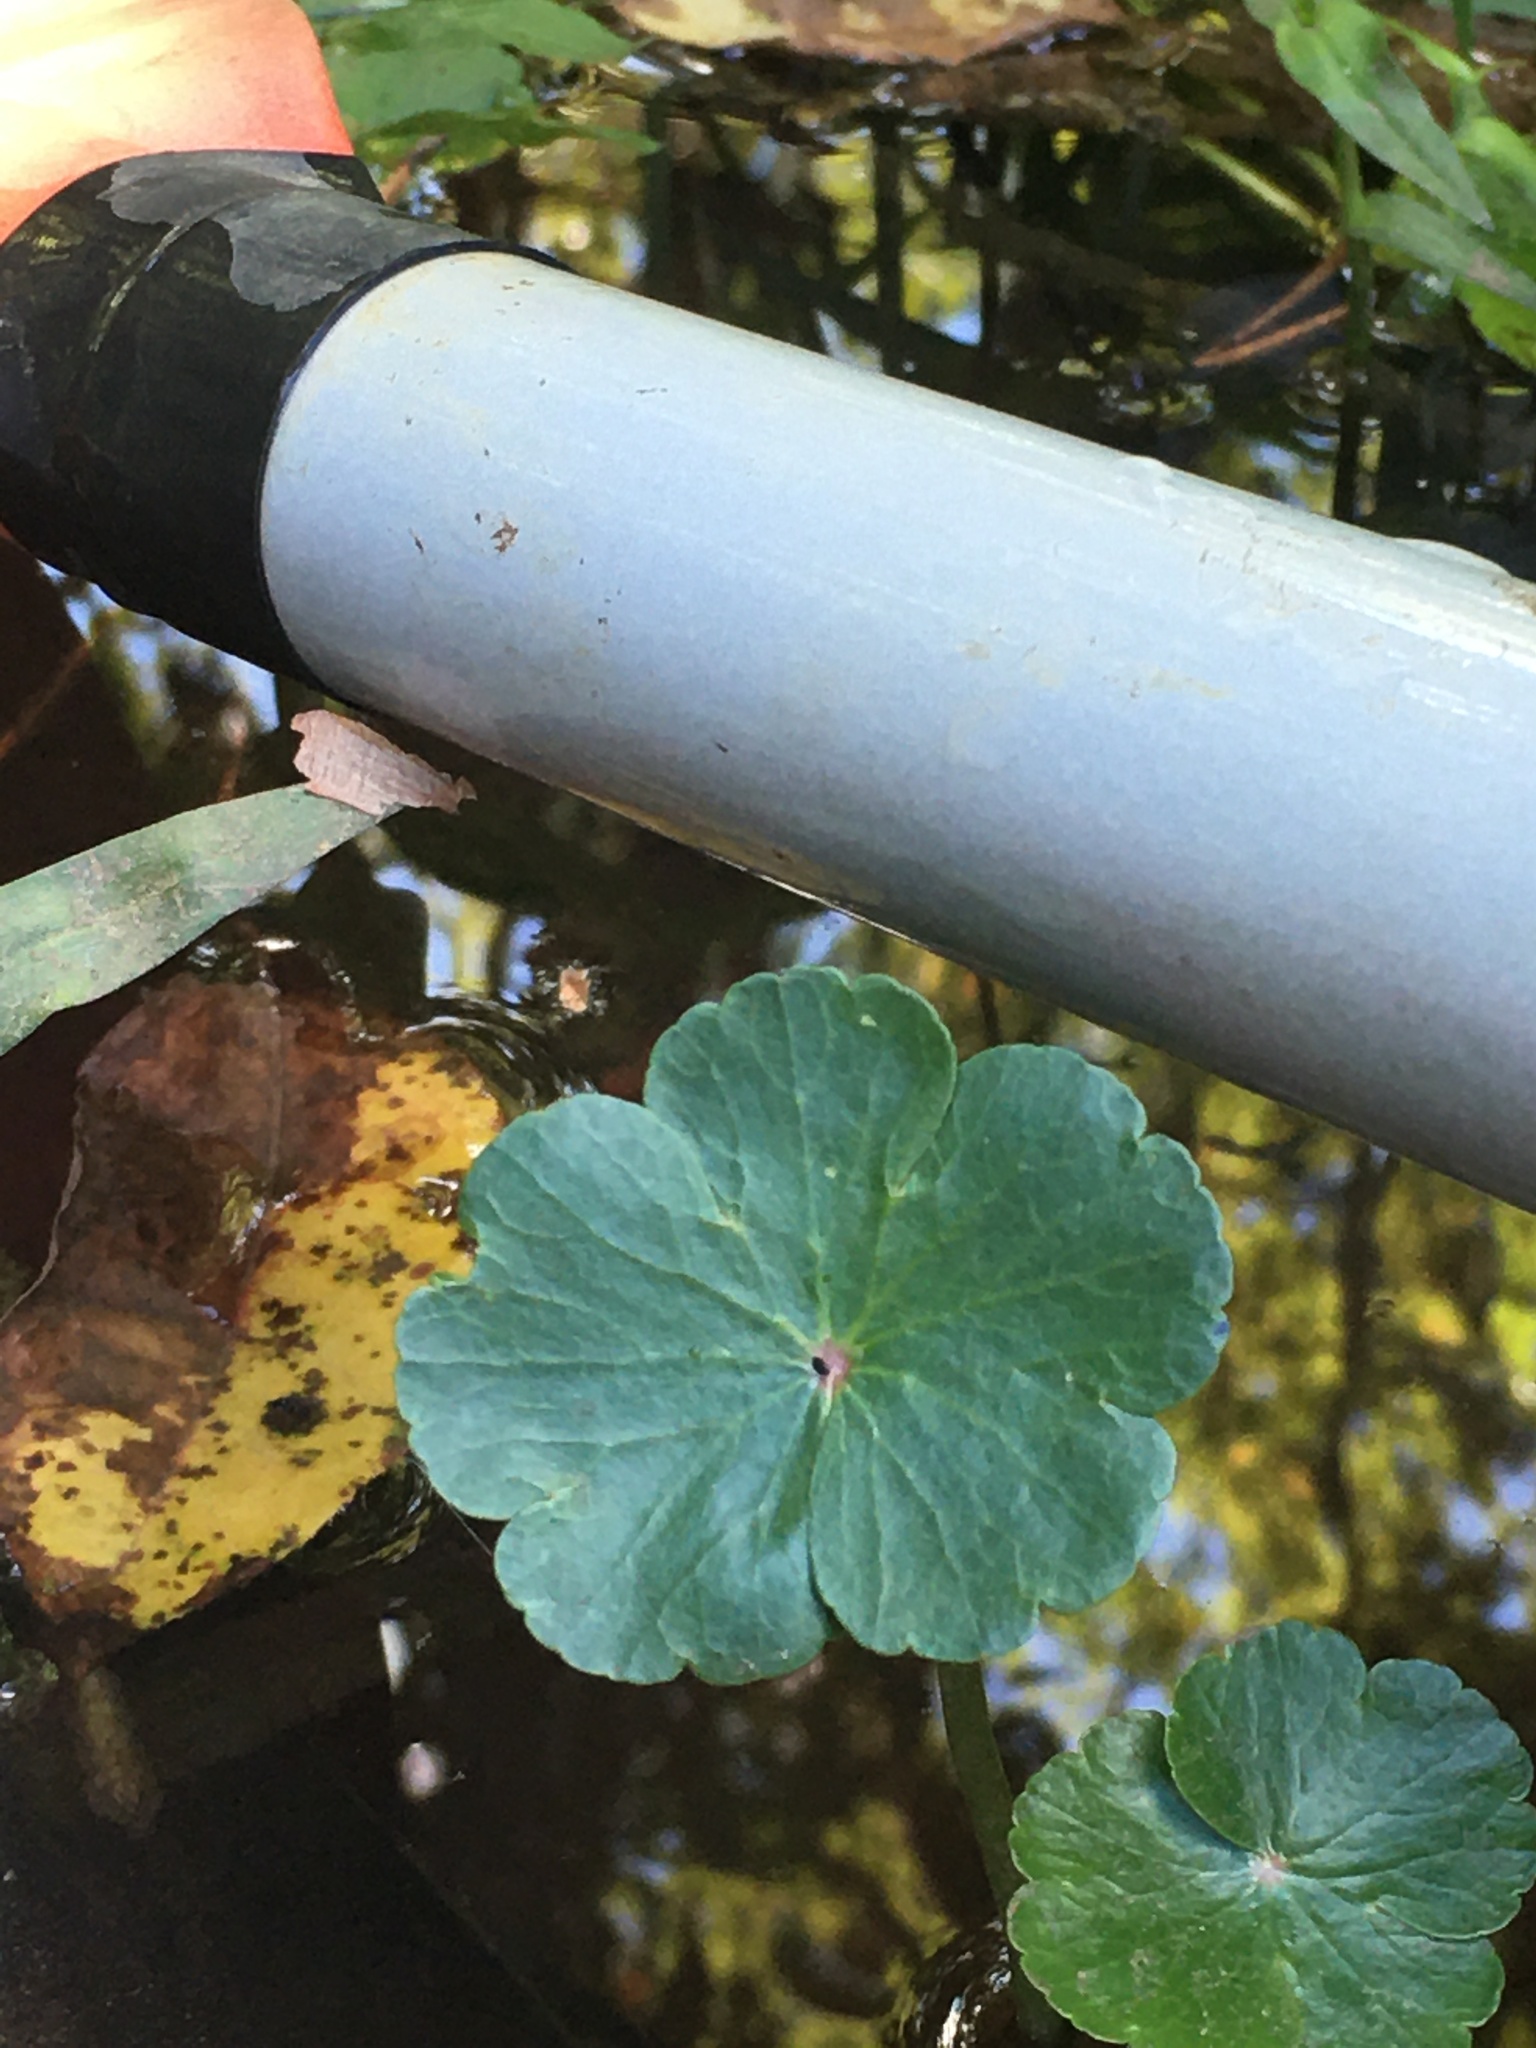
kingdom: Plantae
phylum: Tracheophyta
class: Magnoliopsida
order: Apiales
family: Araliaceae
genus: Hydrocotyle
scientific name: Hydrocotyle ranunculoides
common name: Floating pennywort
